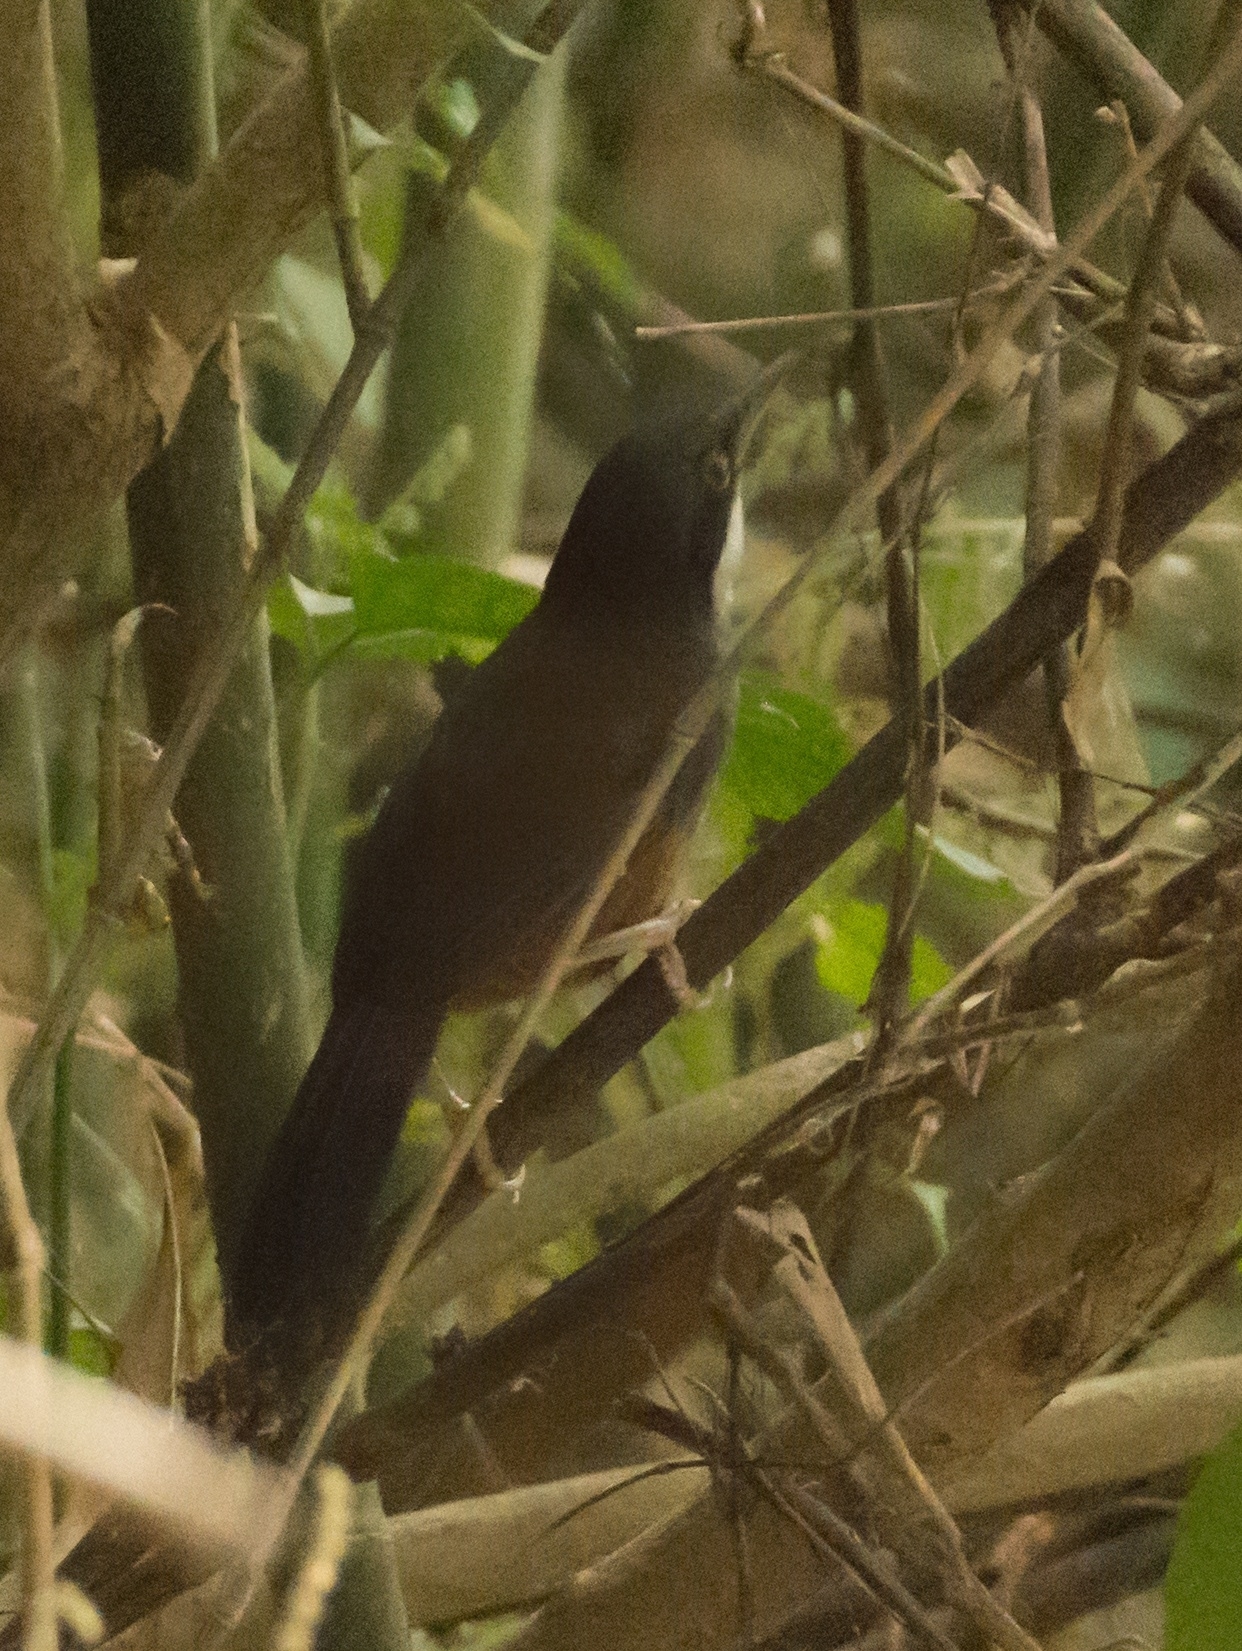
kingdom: Animalia
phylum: Chordata
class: Aves
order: Passeriformes
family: Leiothrichidae
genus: Garrulax
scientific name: Garrulax delesserti
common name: Wynaad laughingthrush
